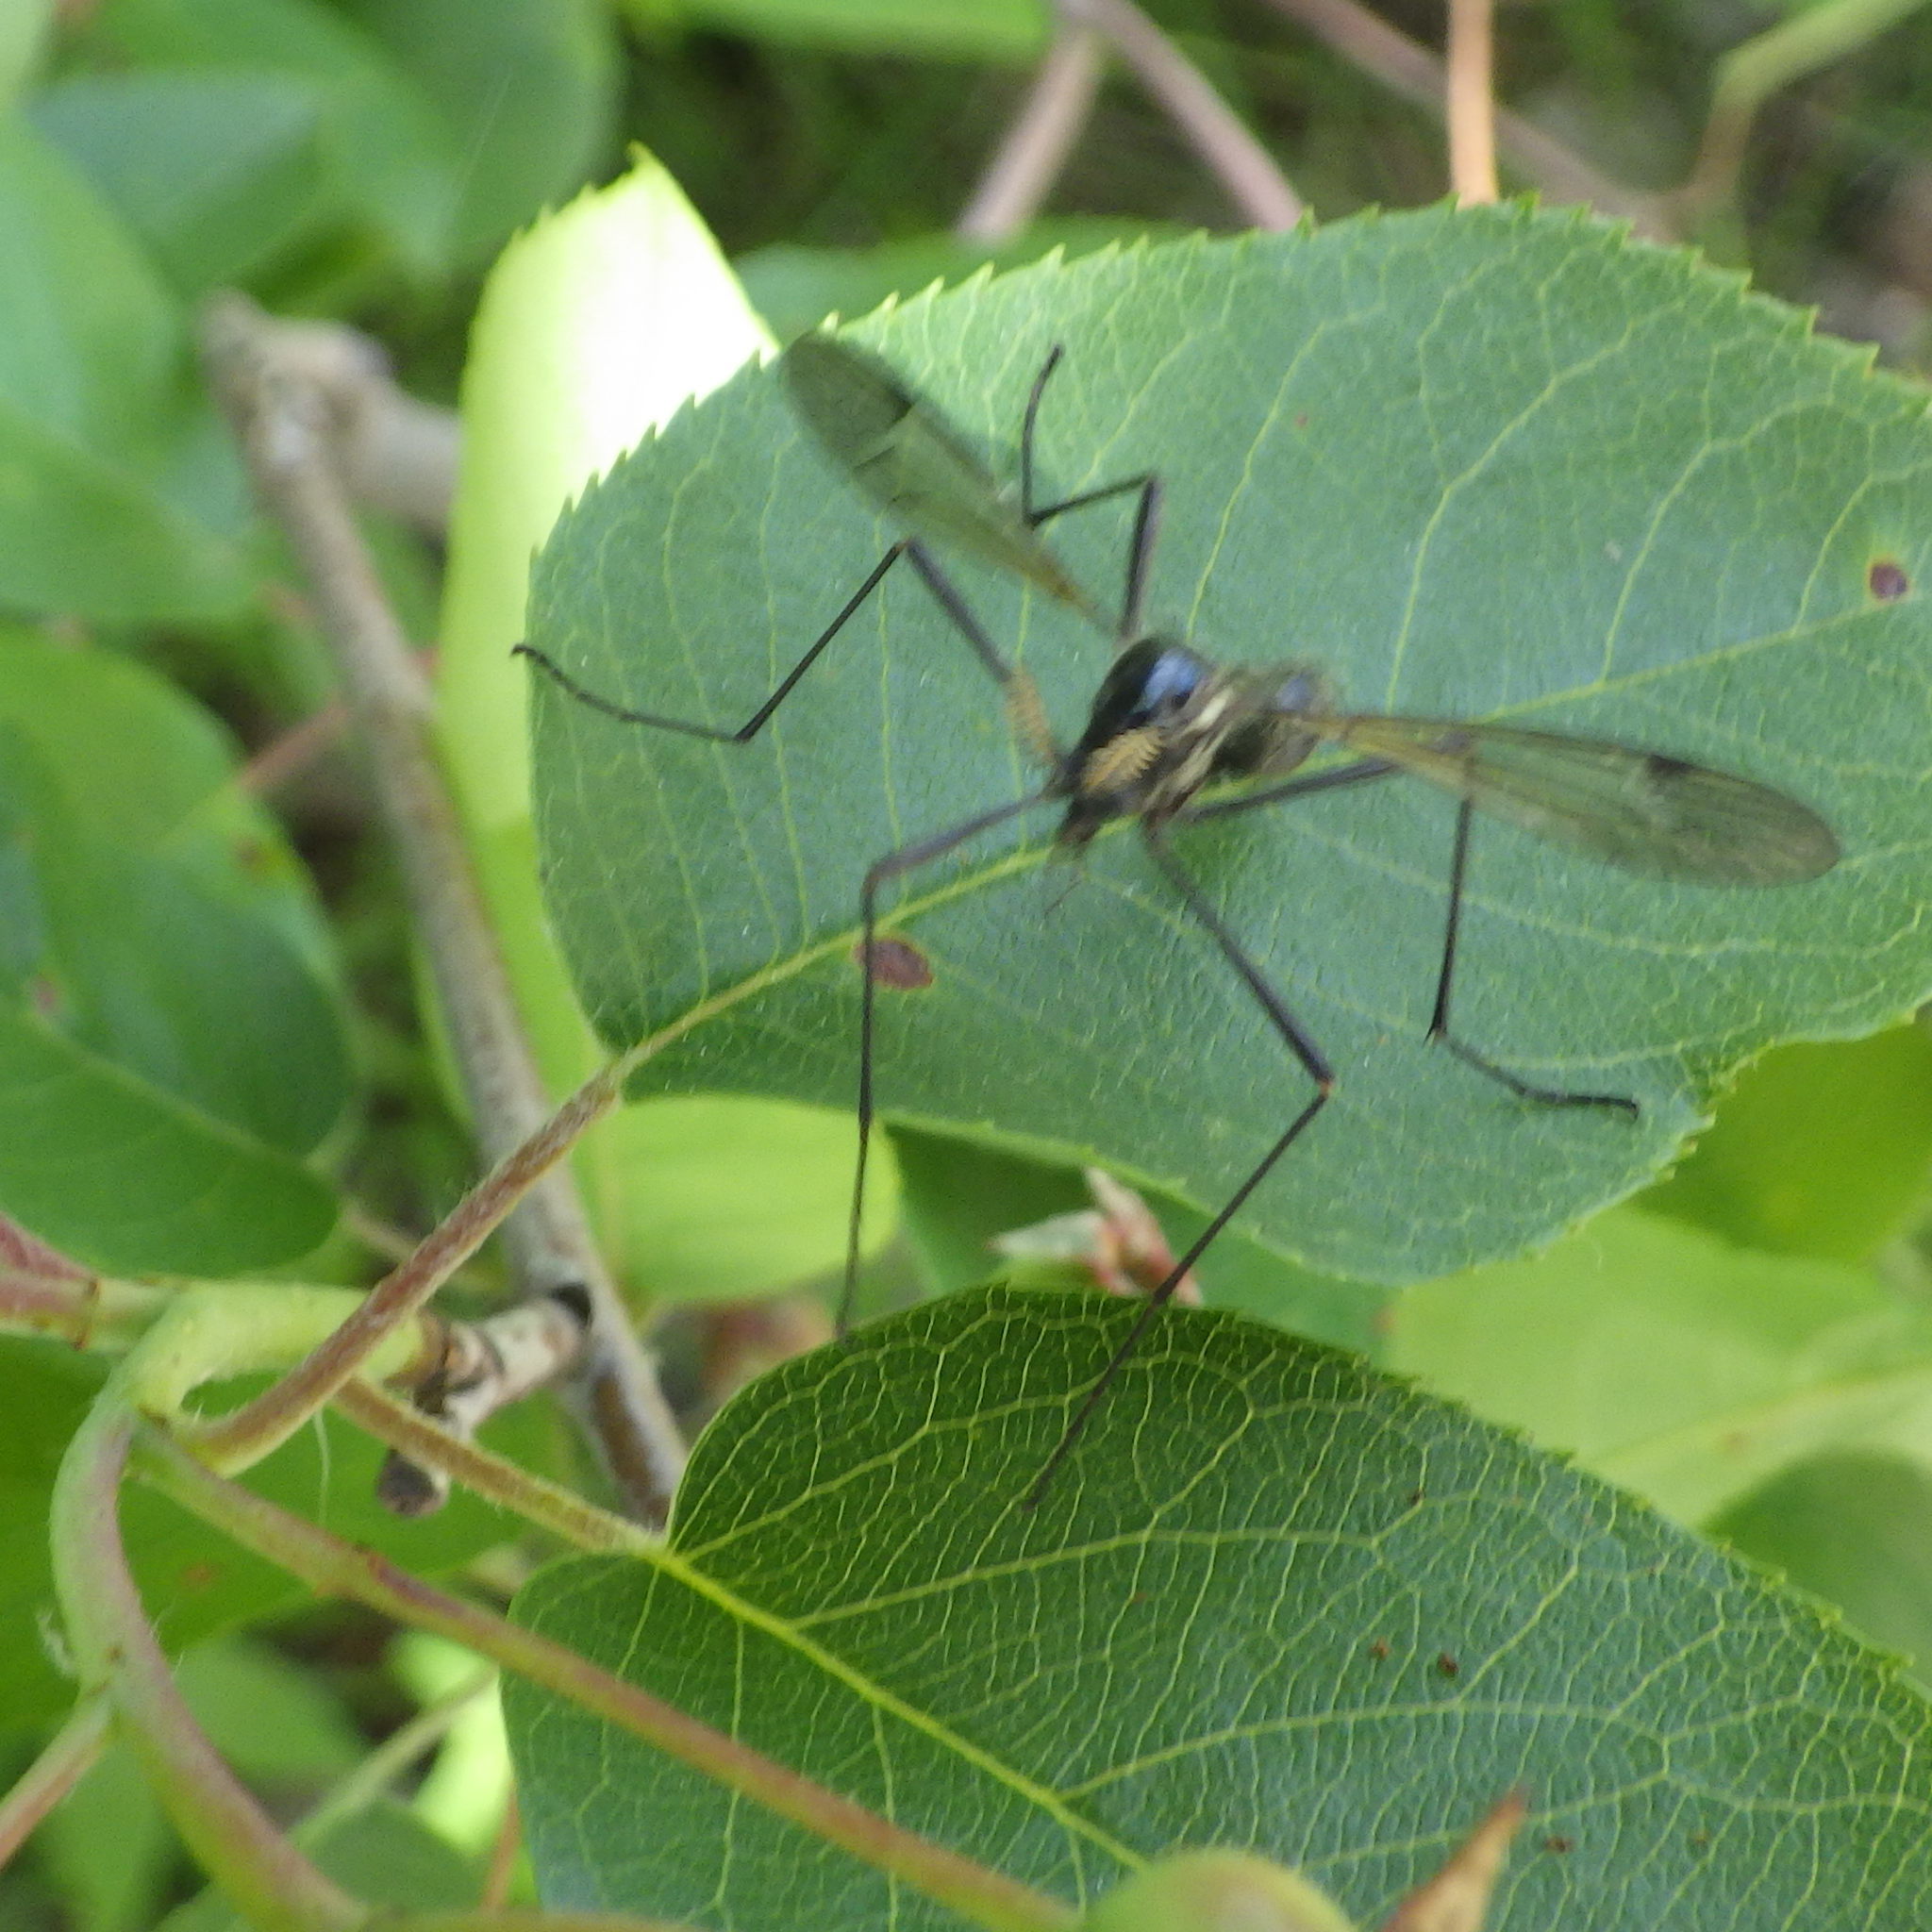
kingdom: Animalia
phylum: Arthropoda
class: Insecta
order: Diptera
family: Tipulidae
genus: Tanyptera
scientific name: Tanyptera dorsalis
